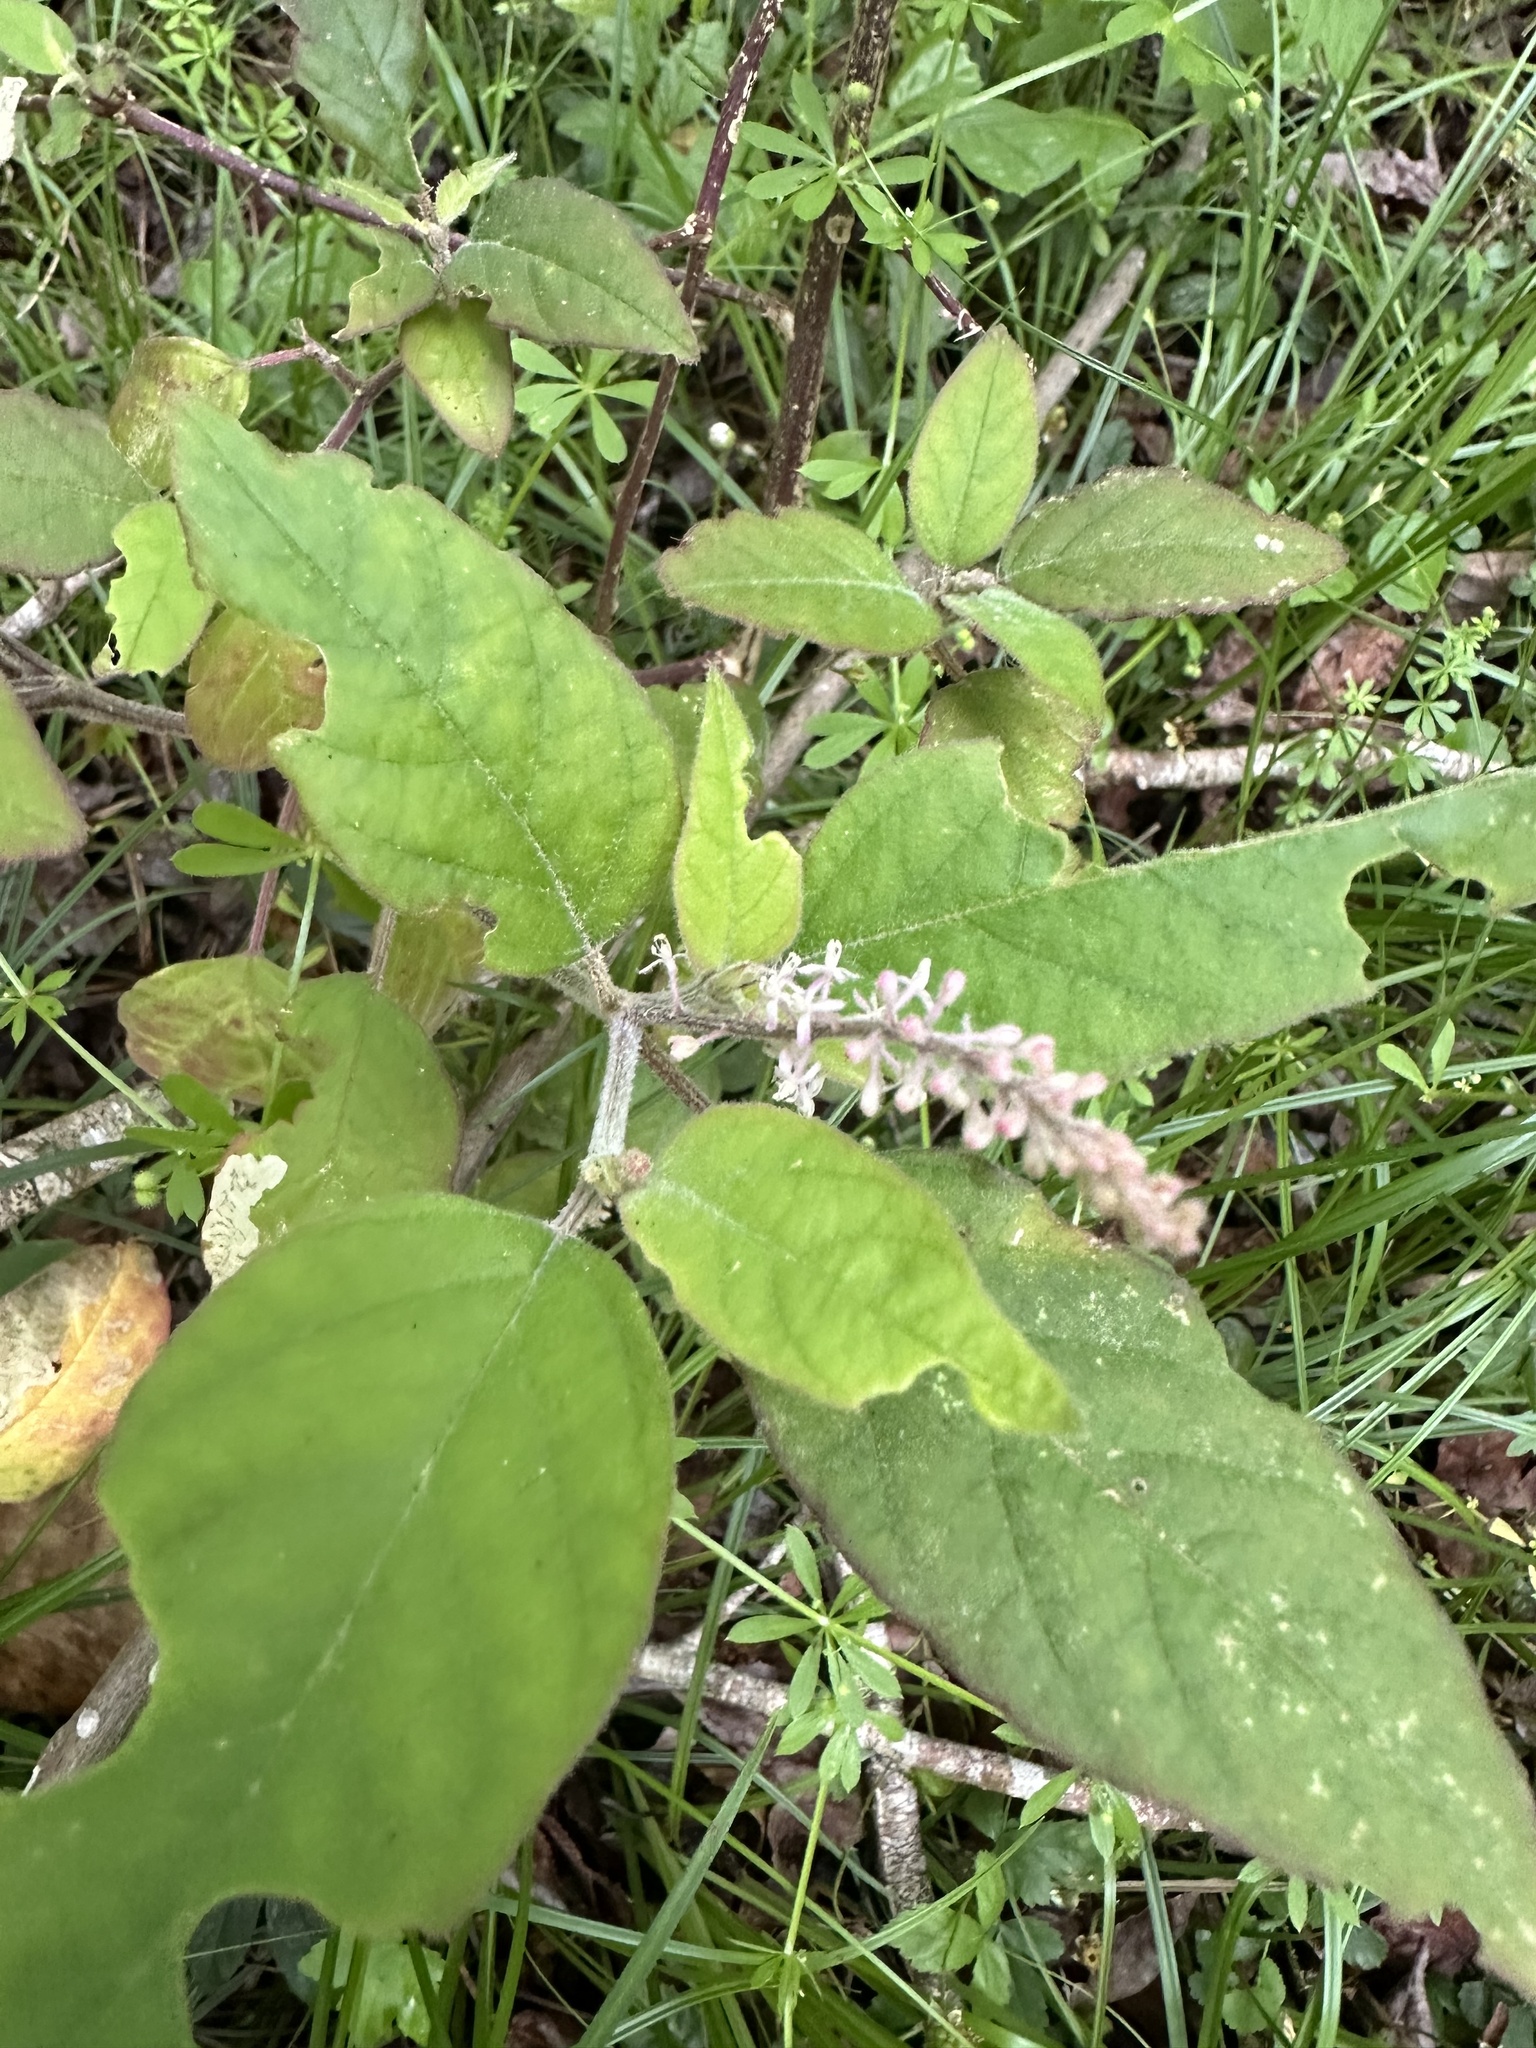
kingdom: Plantae
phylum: Tracheophyta
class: Magnoliopsida
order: Caryophyllales
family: Phytolaccaceae
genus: Rivina
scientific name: Rivina humilis
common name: Rougeplant
